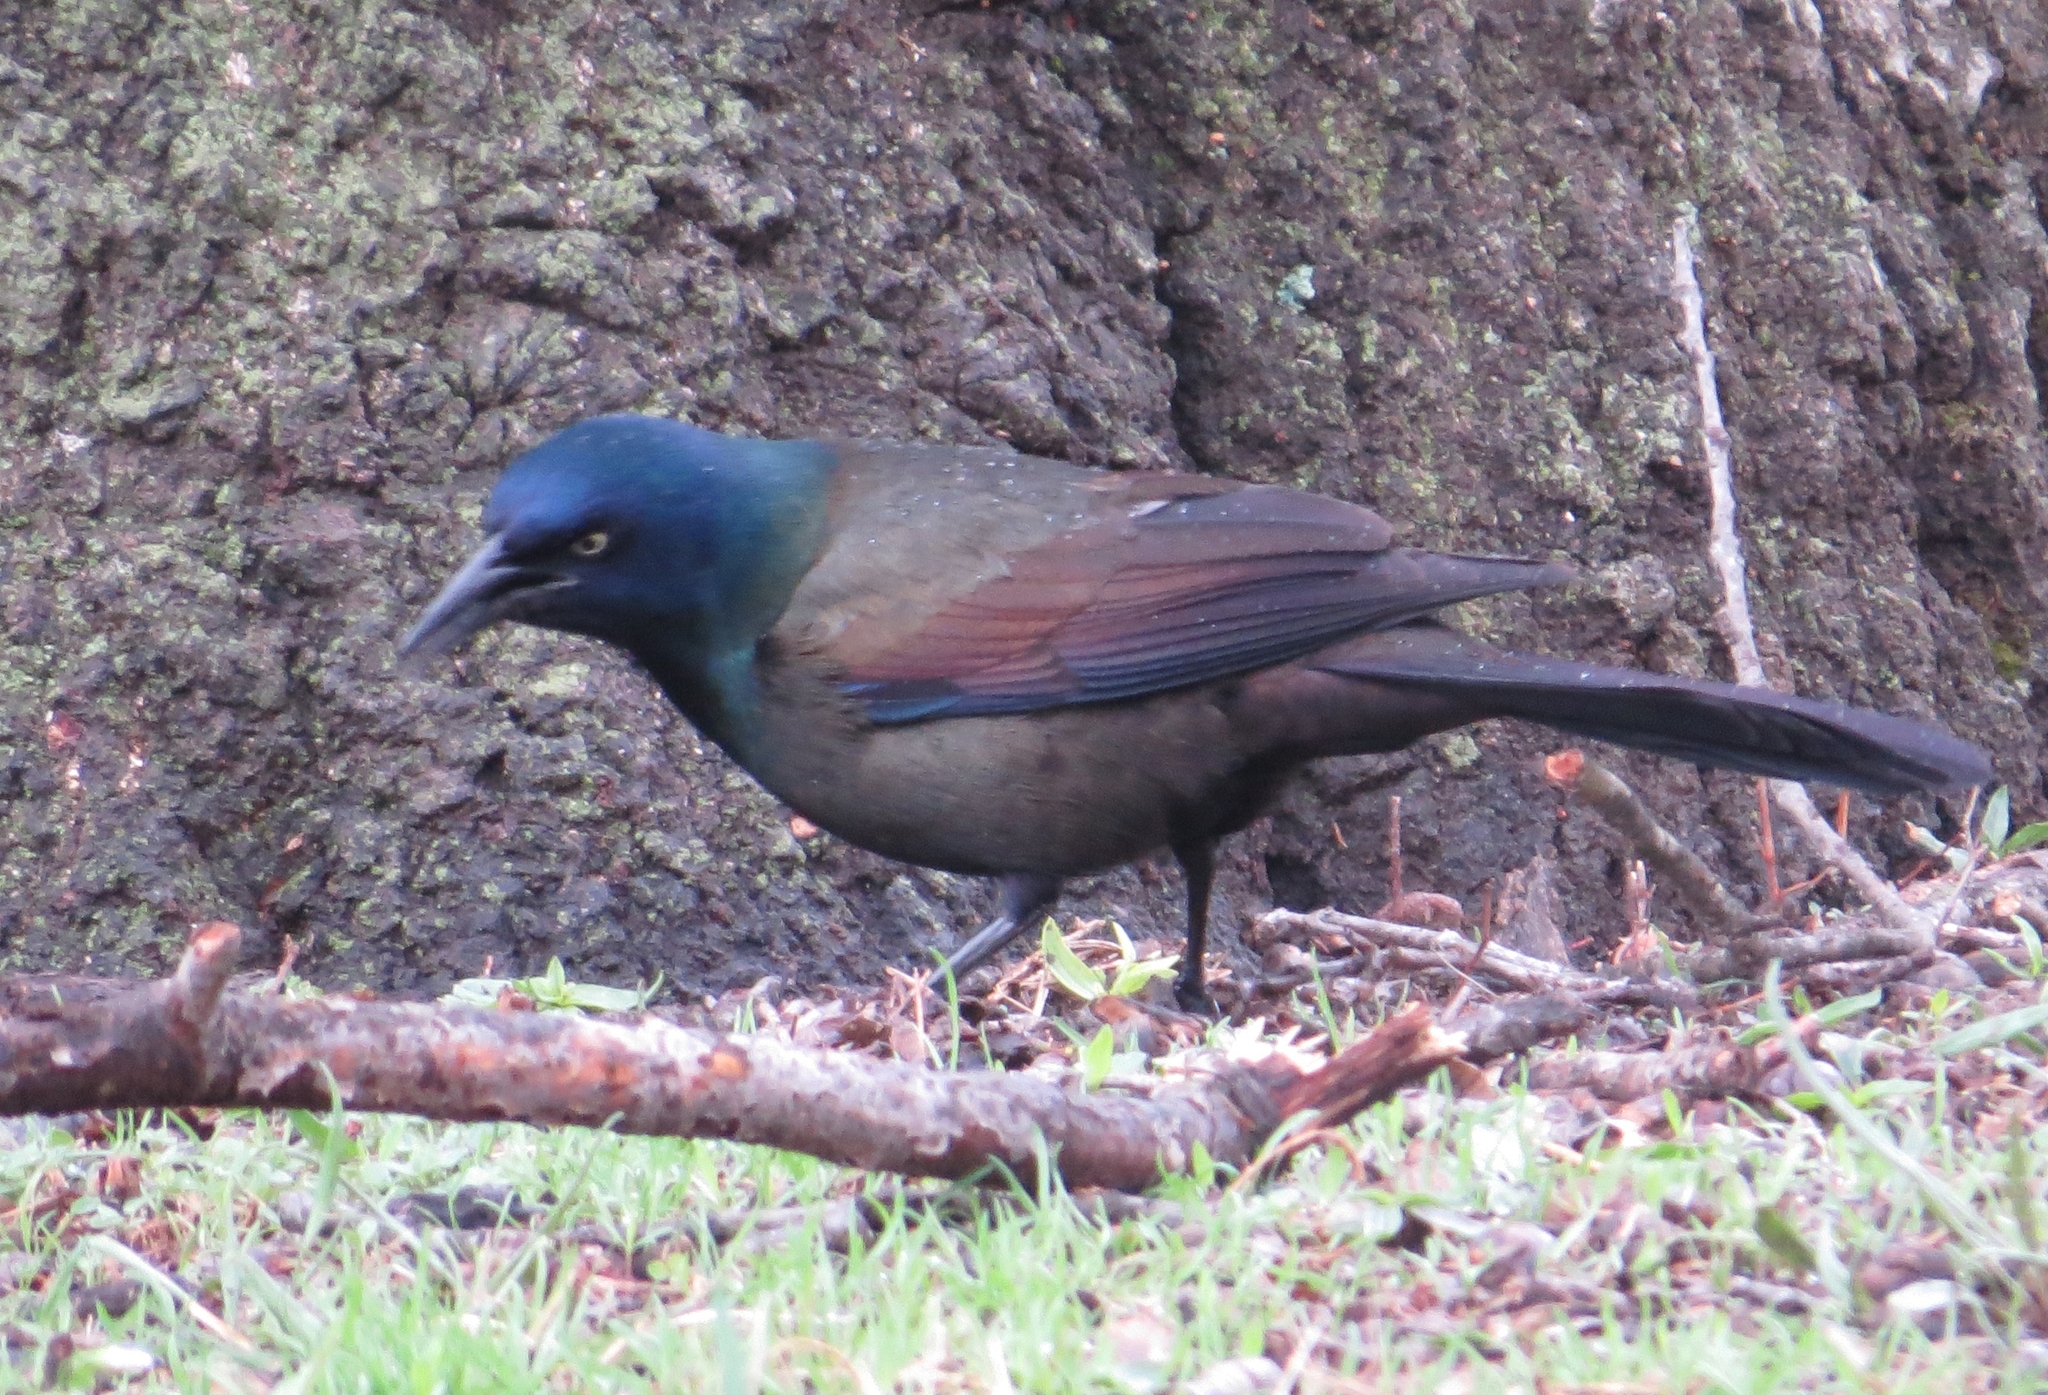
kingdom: Animalia
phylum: Chordata
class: Aves
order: Passeriformes
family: Icteridae
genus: Quiscalus
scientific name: Quiscalus quiscula
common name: Common grackle
